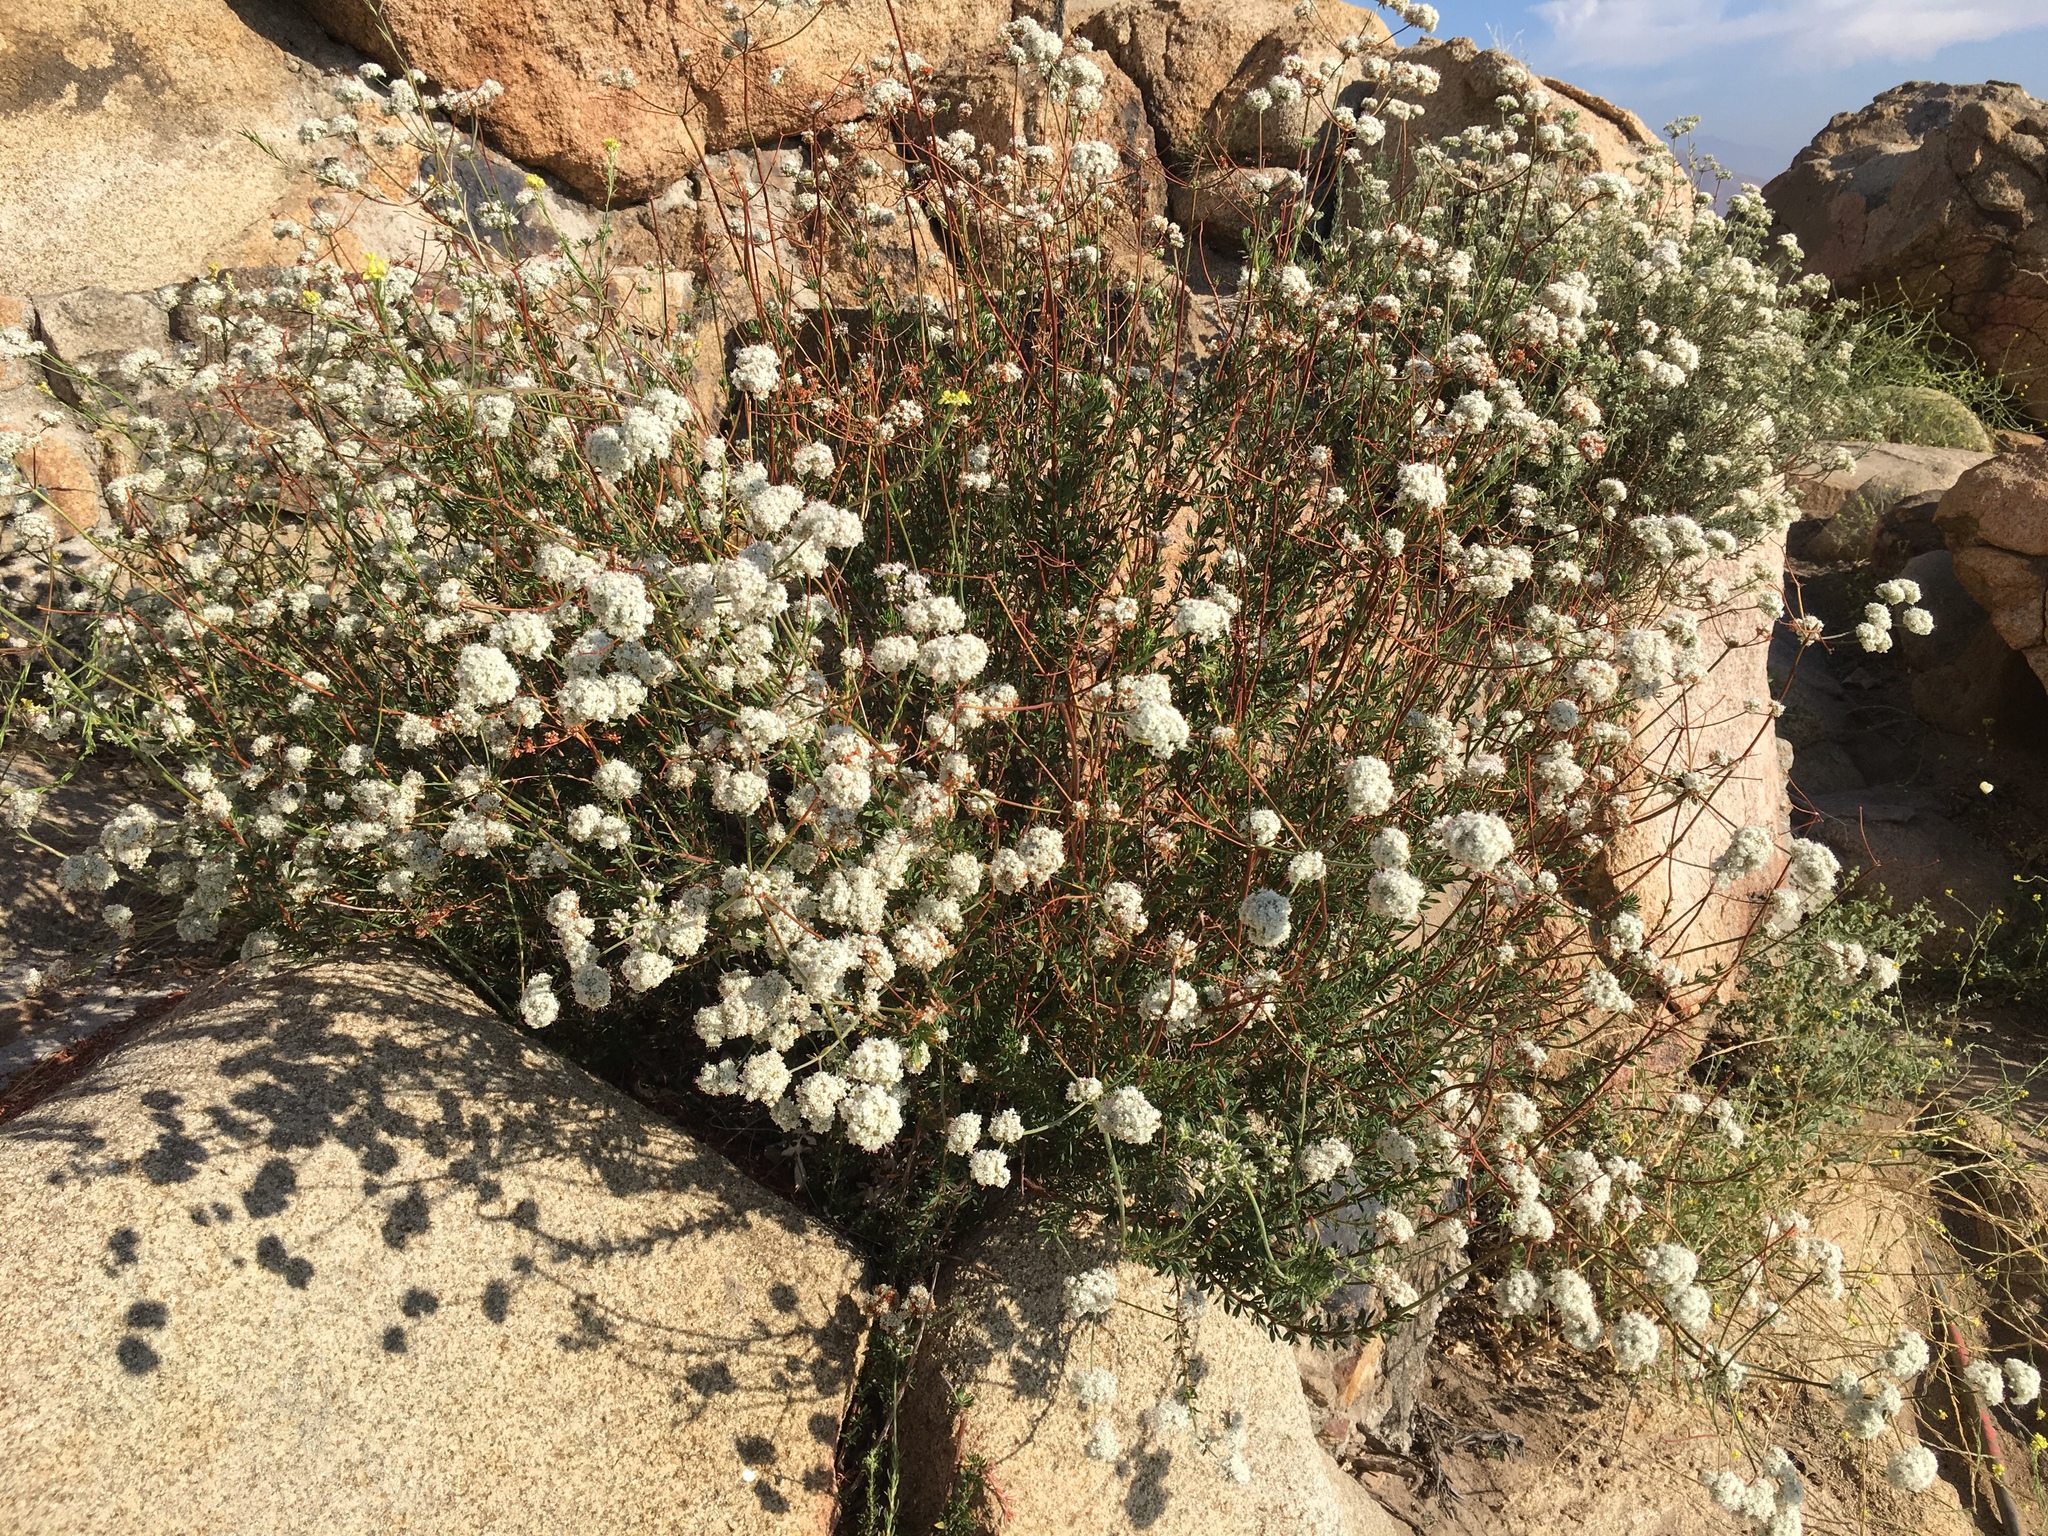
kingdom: Plantae
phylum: Tracheophyta
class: Magnoliopsida
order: Caryophyllales
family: Polygonaceae
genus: Eriogonum
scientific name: Eriogonum fasciculatum
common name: California wild buckwheat
